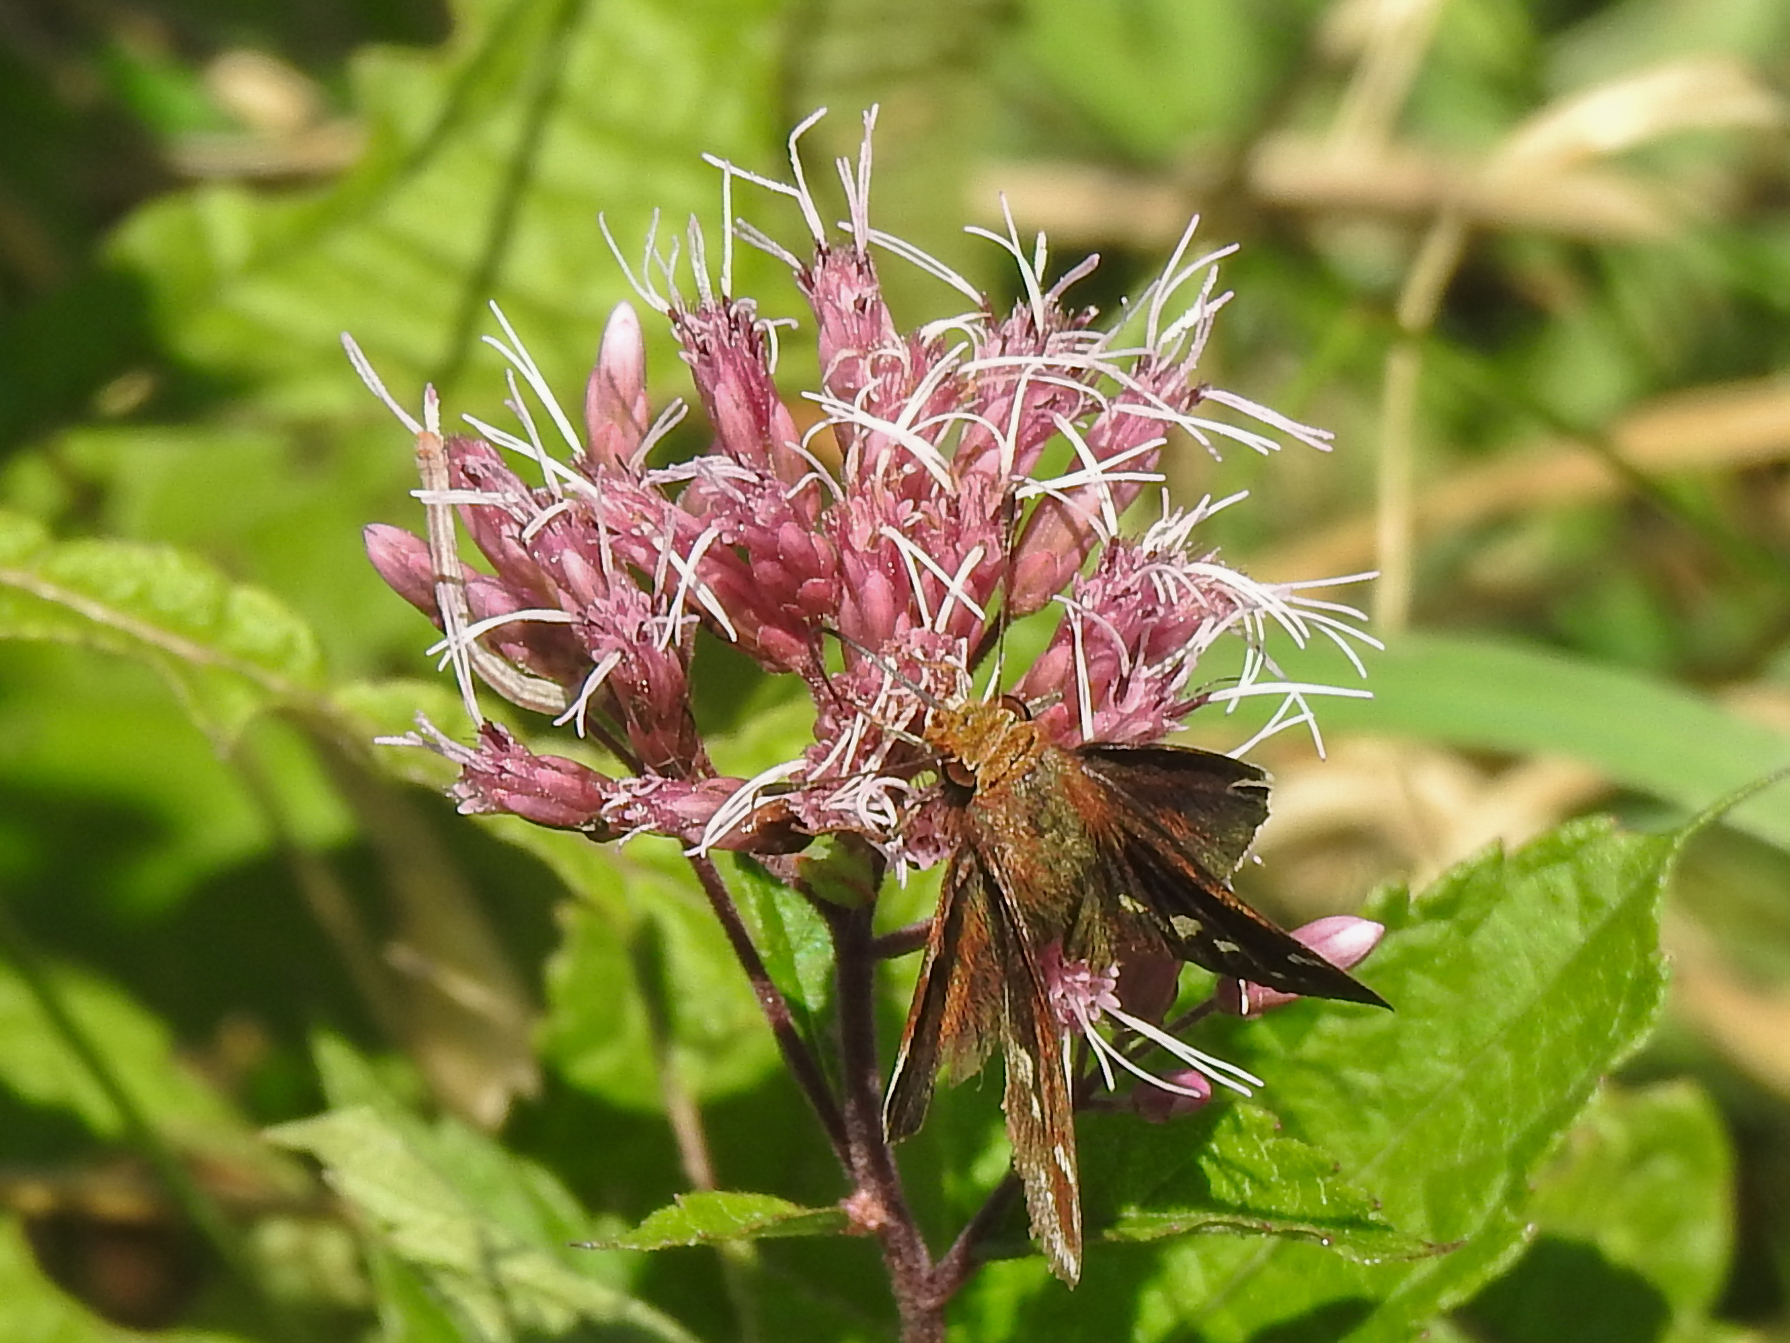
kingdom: Animalia
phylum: Arthropoda
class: Insecta
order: Lepidoptera
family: Hesperiidae
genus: Lon
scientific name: Lon zabulon
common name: Zabulon skipper
